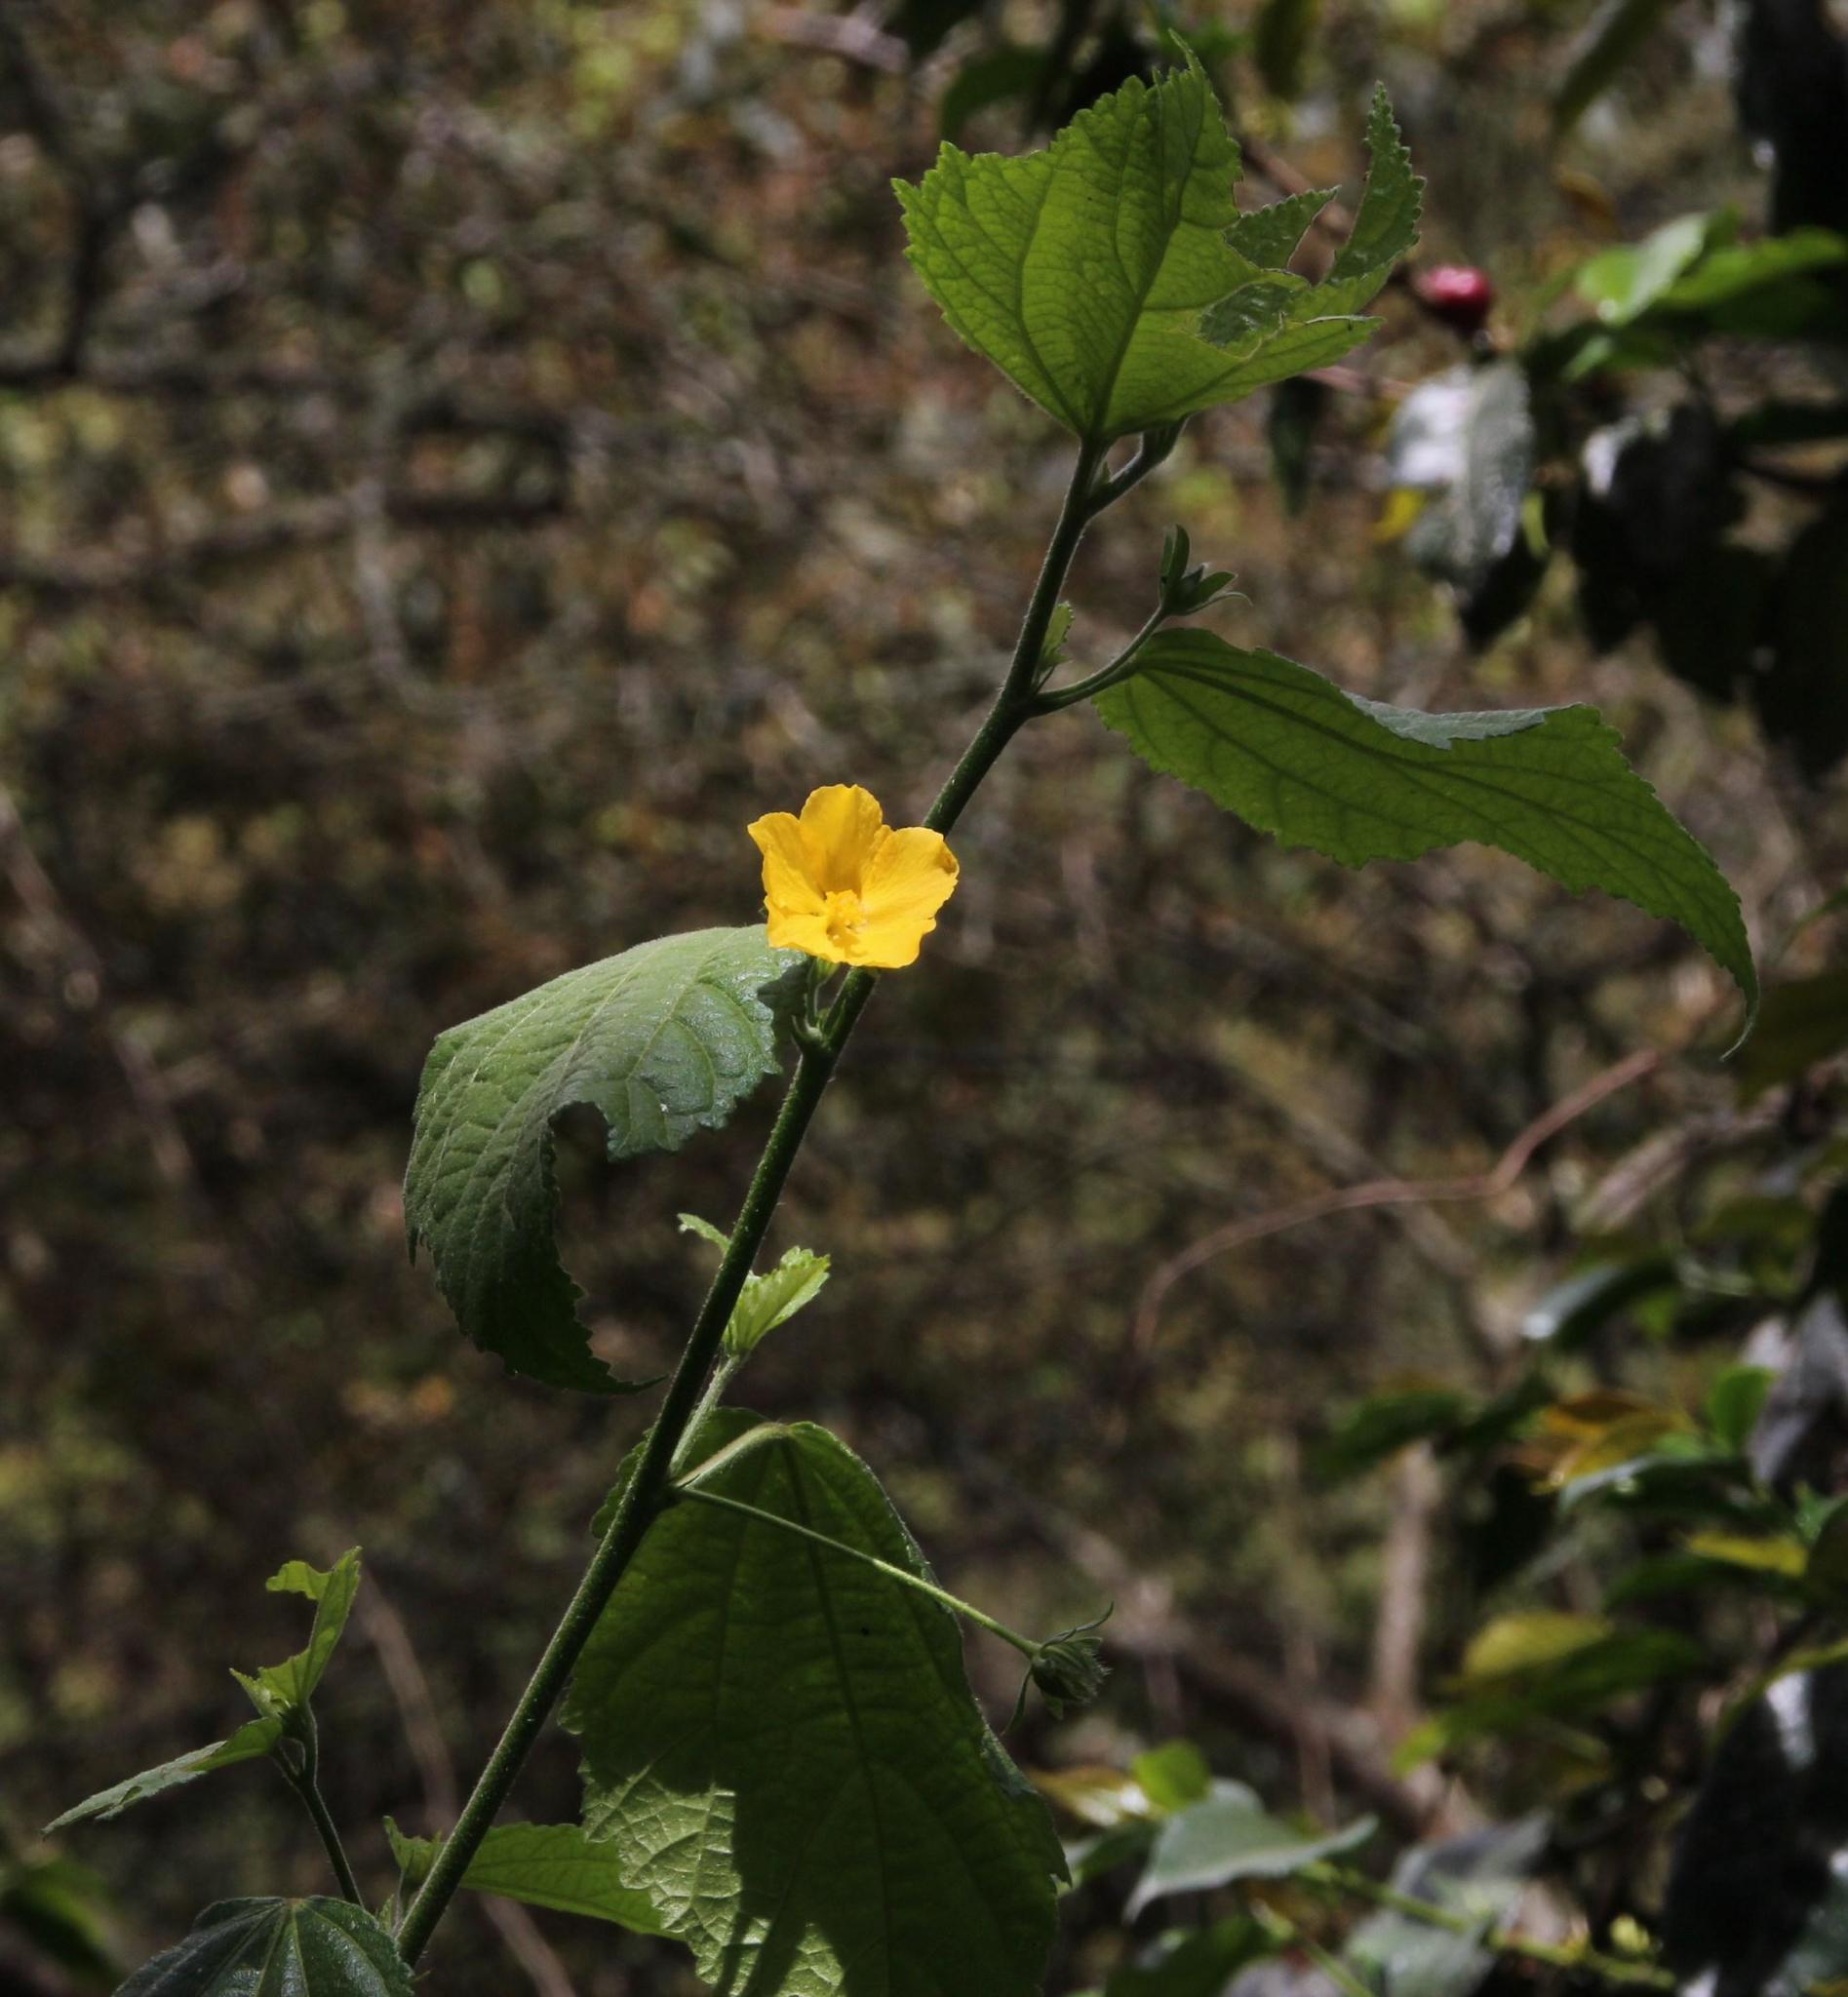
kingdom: Plantae
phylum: Tracheophyta
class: Magnoliopsida
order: Malvales
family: Malvaceae
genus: Pavonia
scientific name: Pavonia sepium
